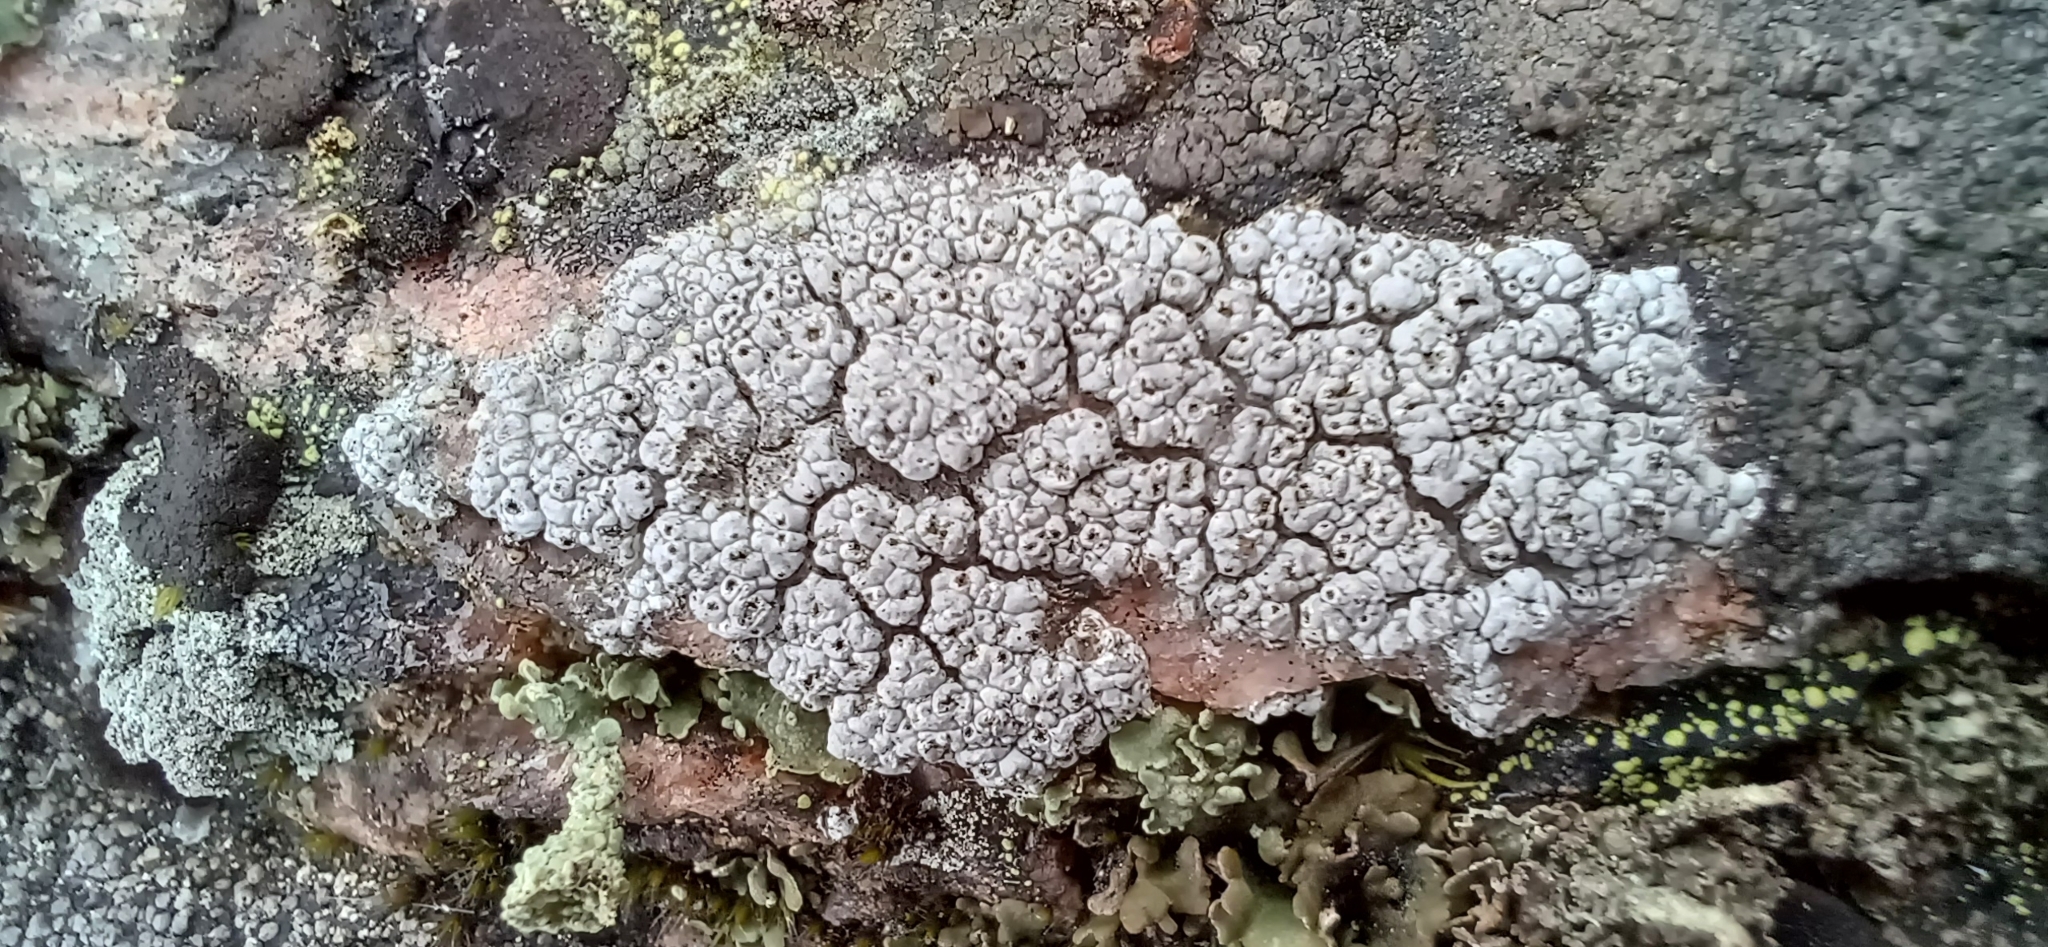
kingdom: Fungi
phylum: Ascomycota
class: Lecanoromycetes
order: Ostropales
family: Graphidaceae
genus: Diploschistes
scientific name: Diploschistes scruposus
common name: Crater lichen
